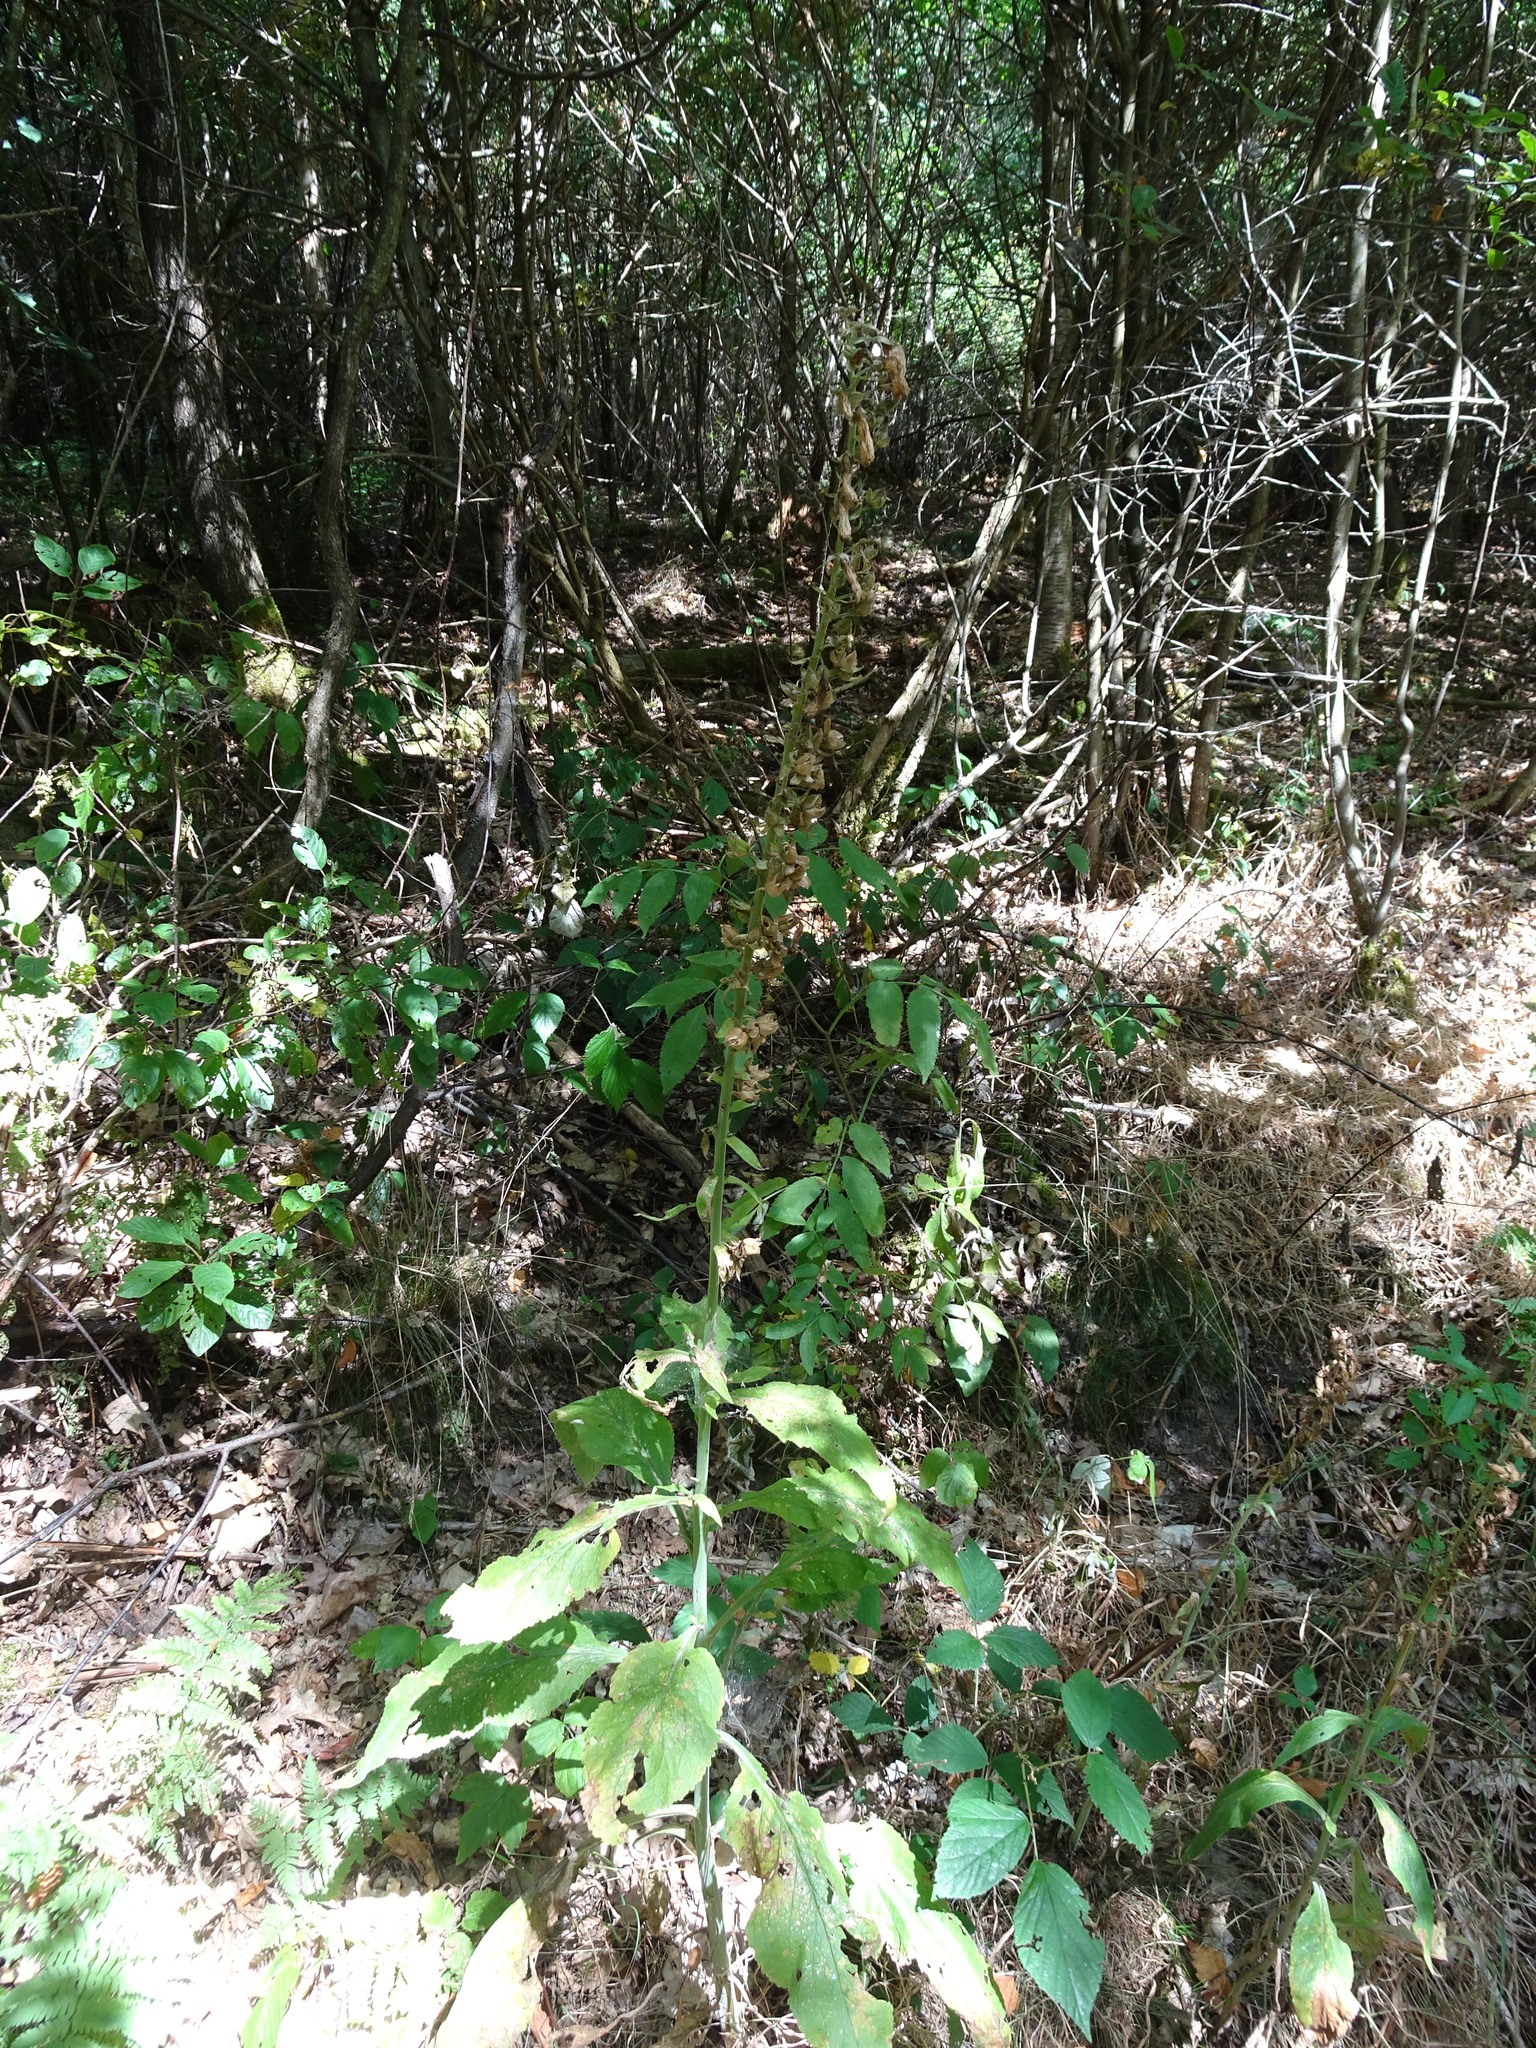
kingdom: Plantae
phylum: Tracheophyta
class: Magnoliopsida
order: Lamiales
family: Plantaginaceae
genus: Digitalis
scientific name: Digitalis purpurea
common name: Foxglove
